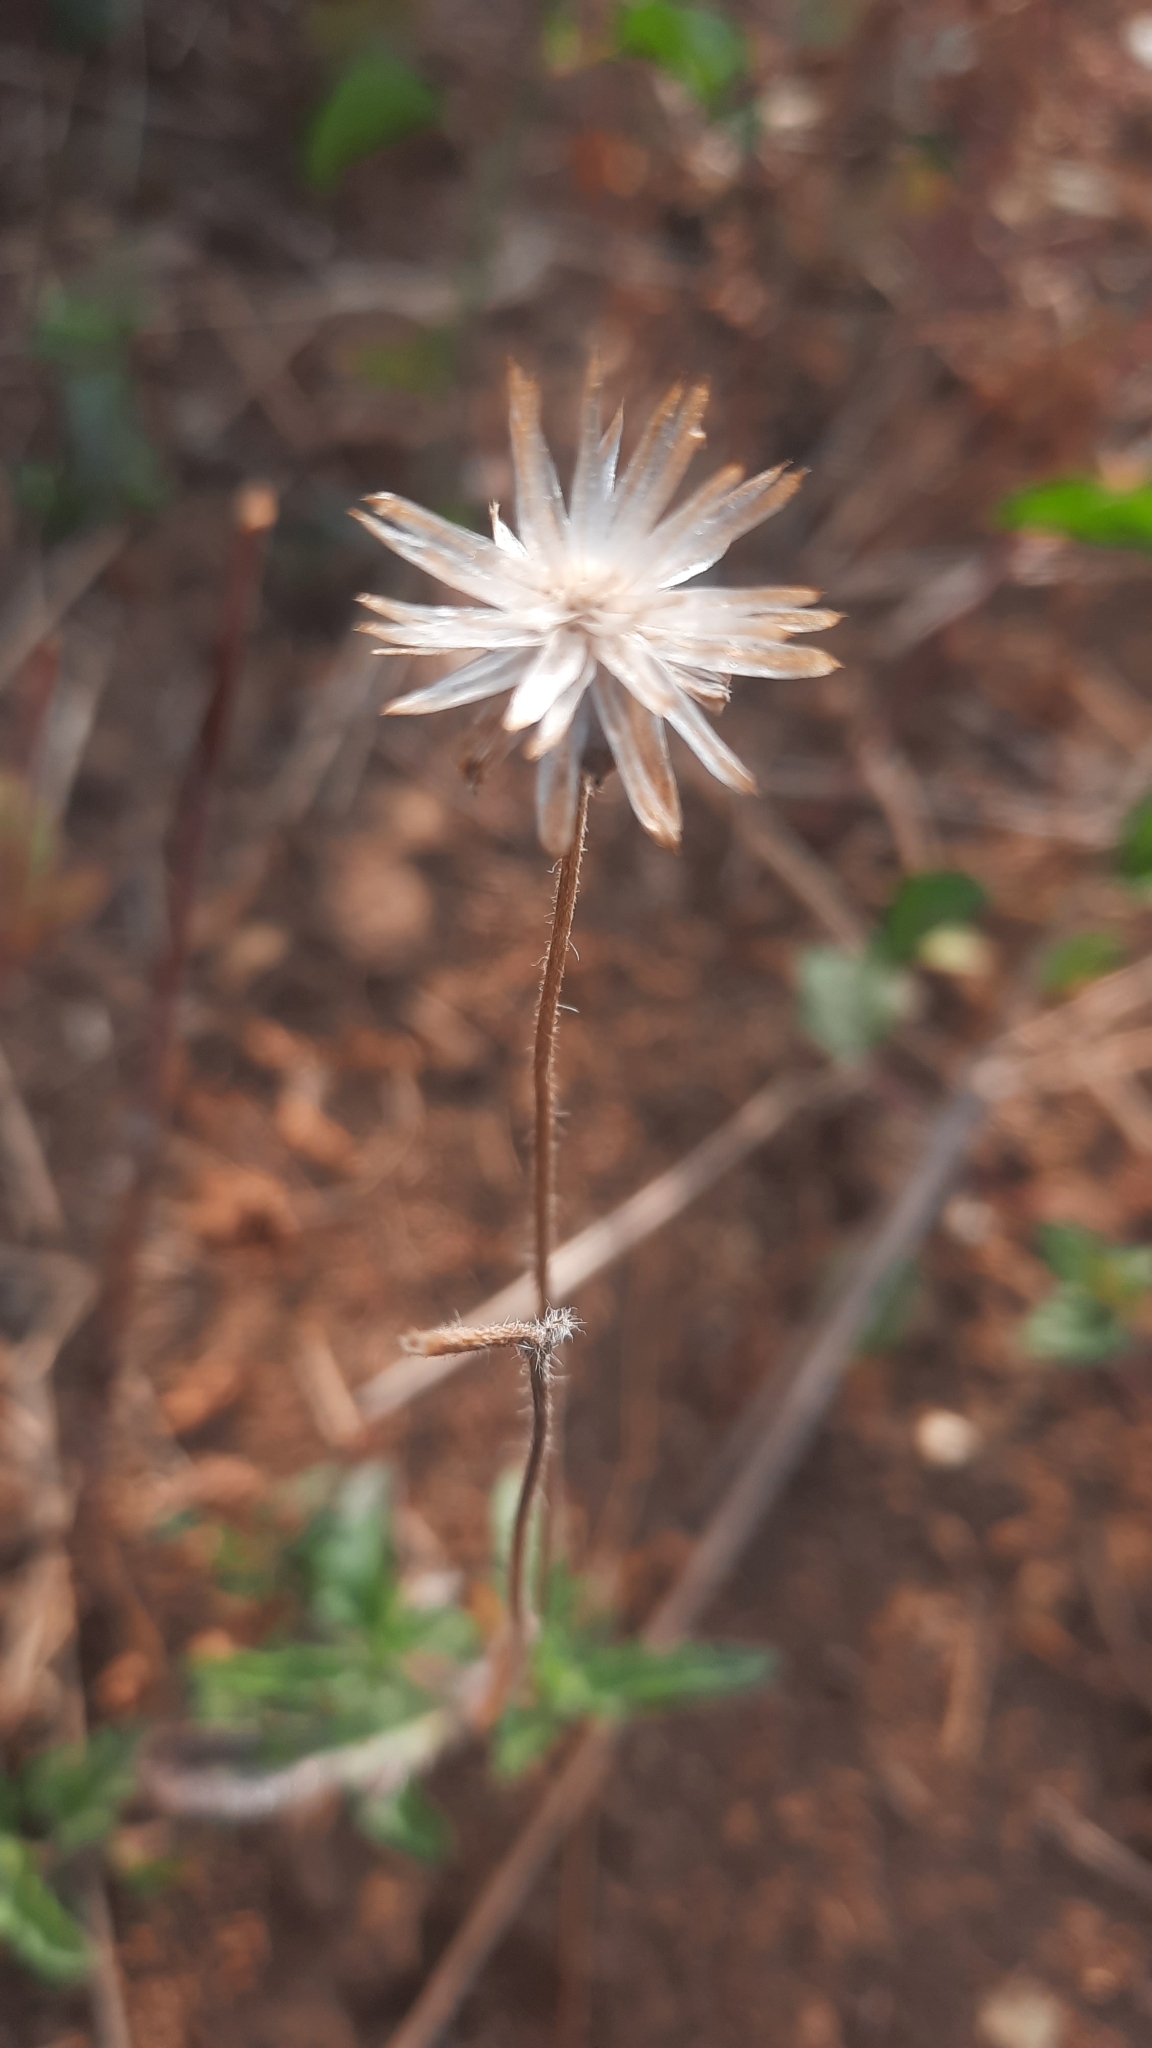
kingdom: Plantae
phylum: Tracheophyta
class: Magnoliopsida
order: Asterales
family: Asteraceae
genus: Tridax
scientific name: Tridax procumbens
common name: Coatbuttons
